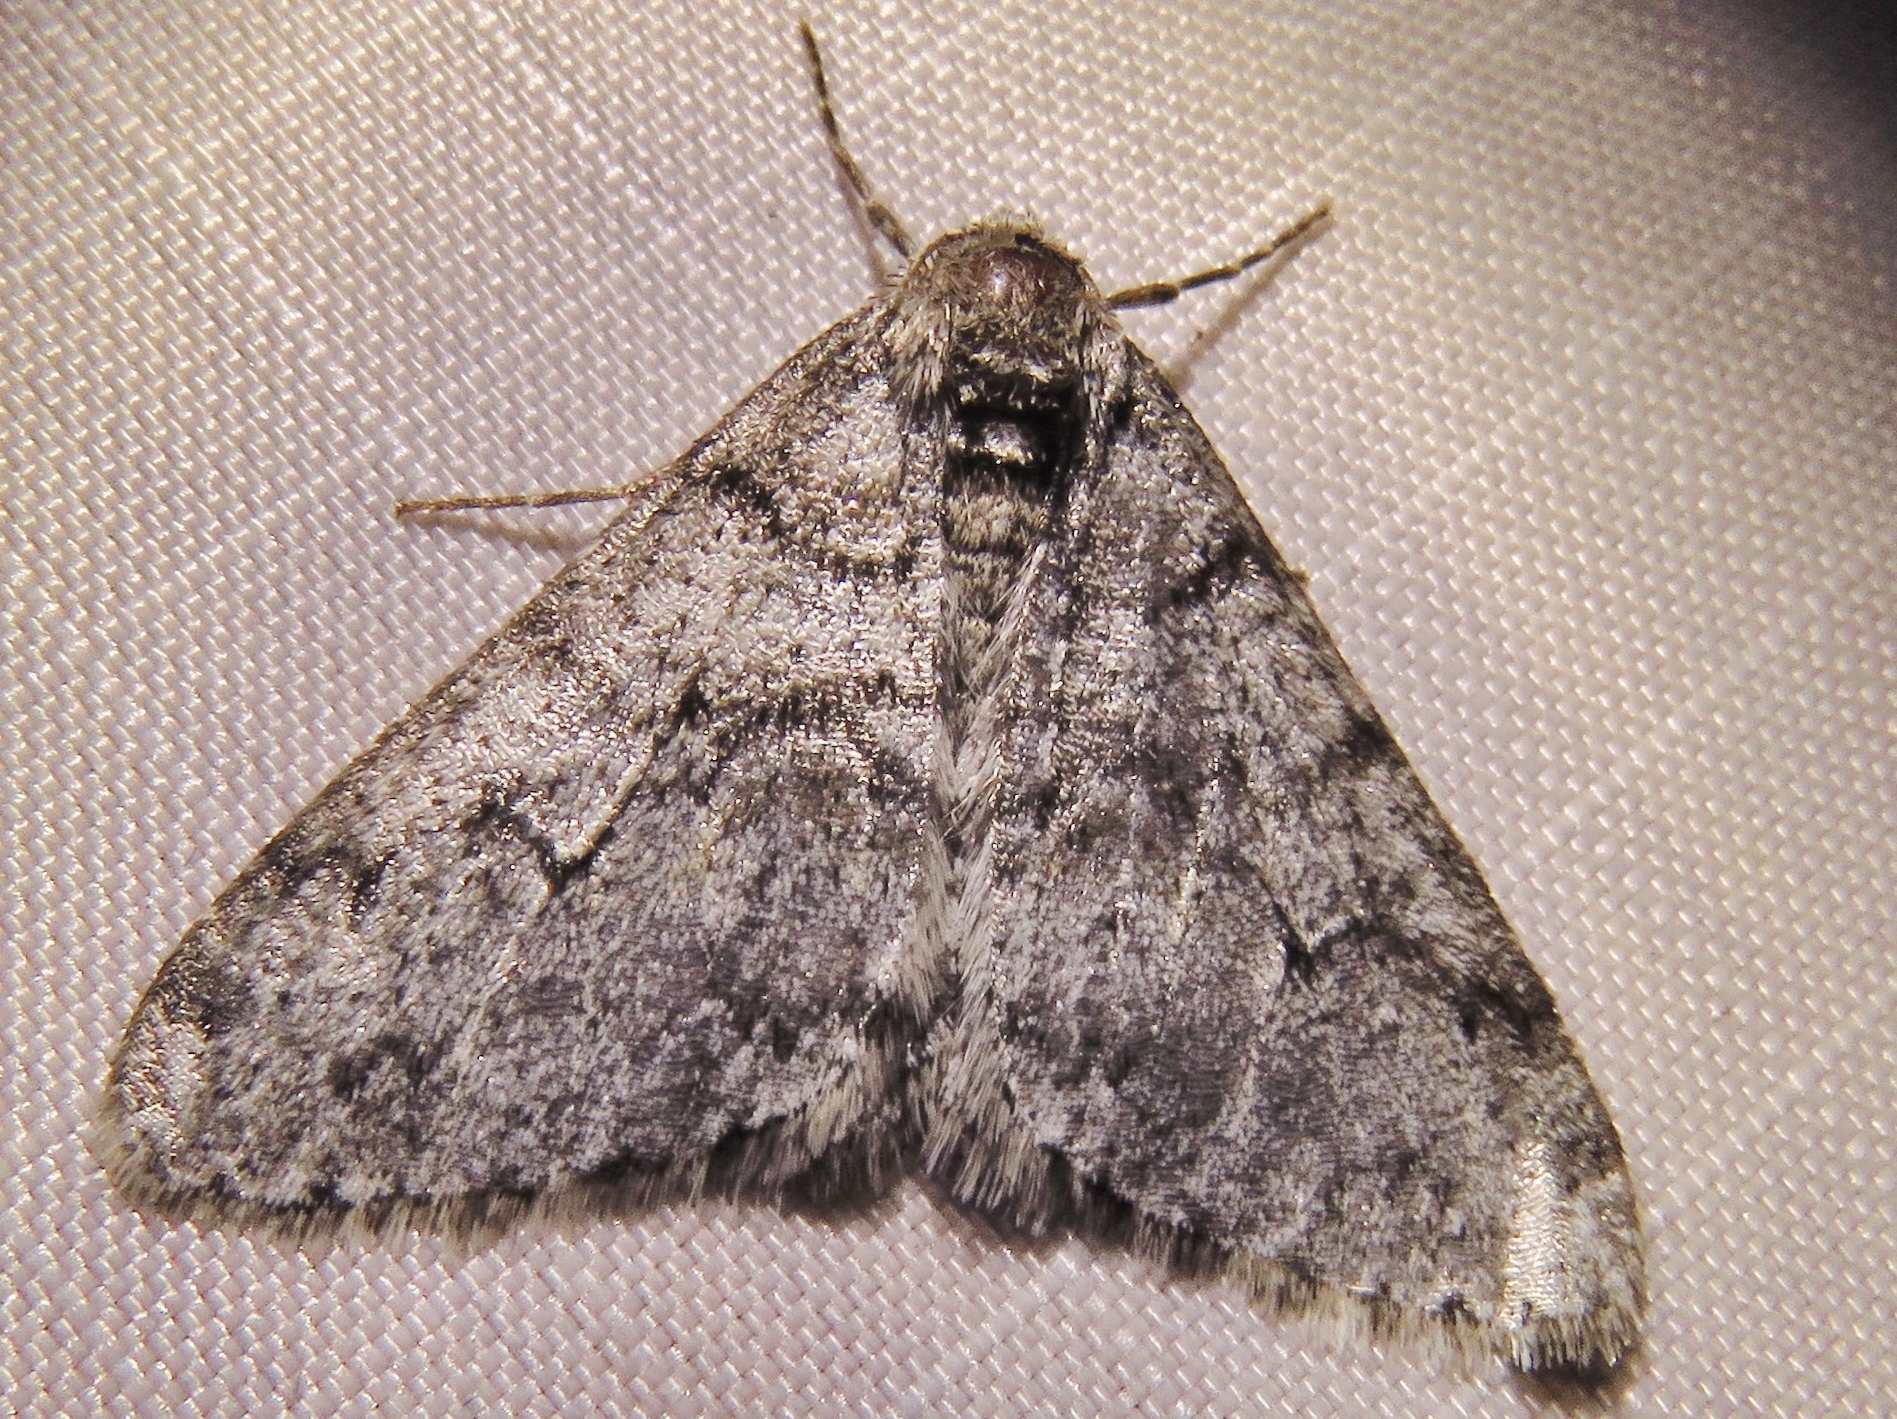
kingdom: Animalia
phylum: Arthropoda
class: Insecta
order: Lepidoptera
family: Geometridae
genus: Phigalia
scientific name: Phigalia strigataria
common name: Small phigalia
